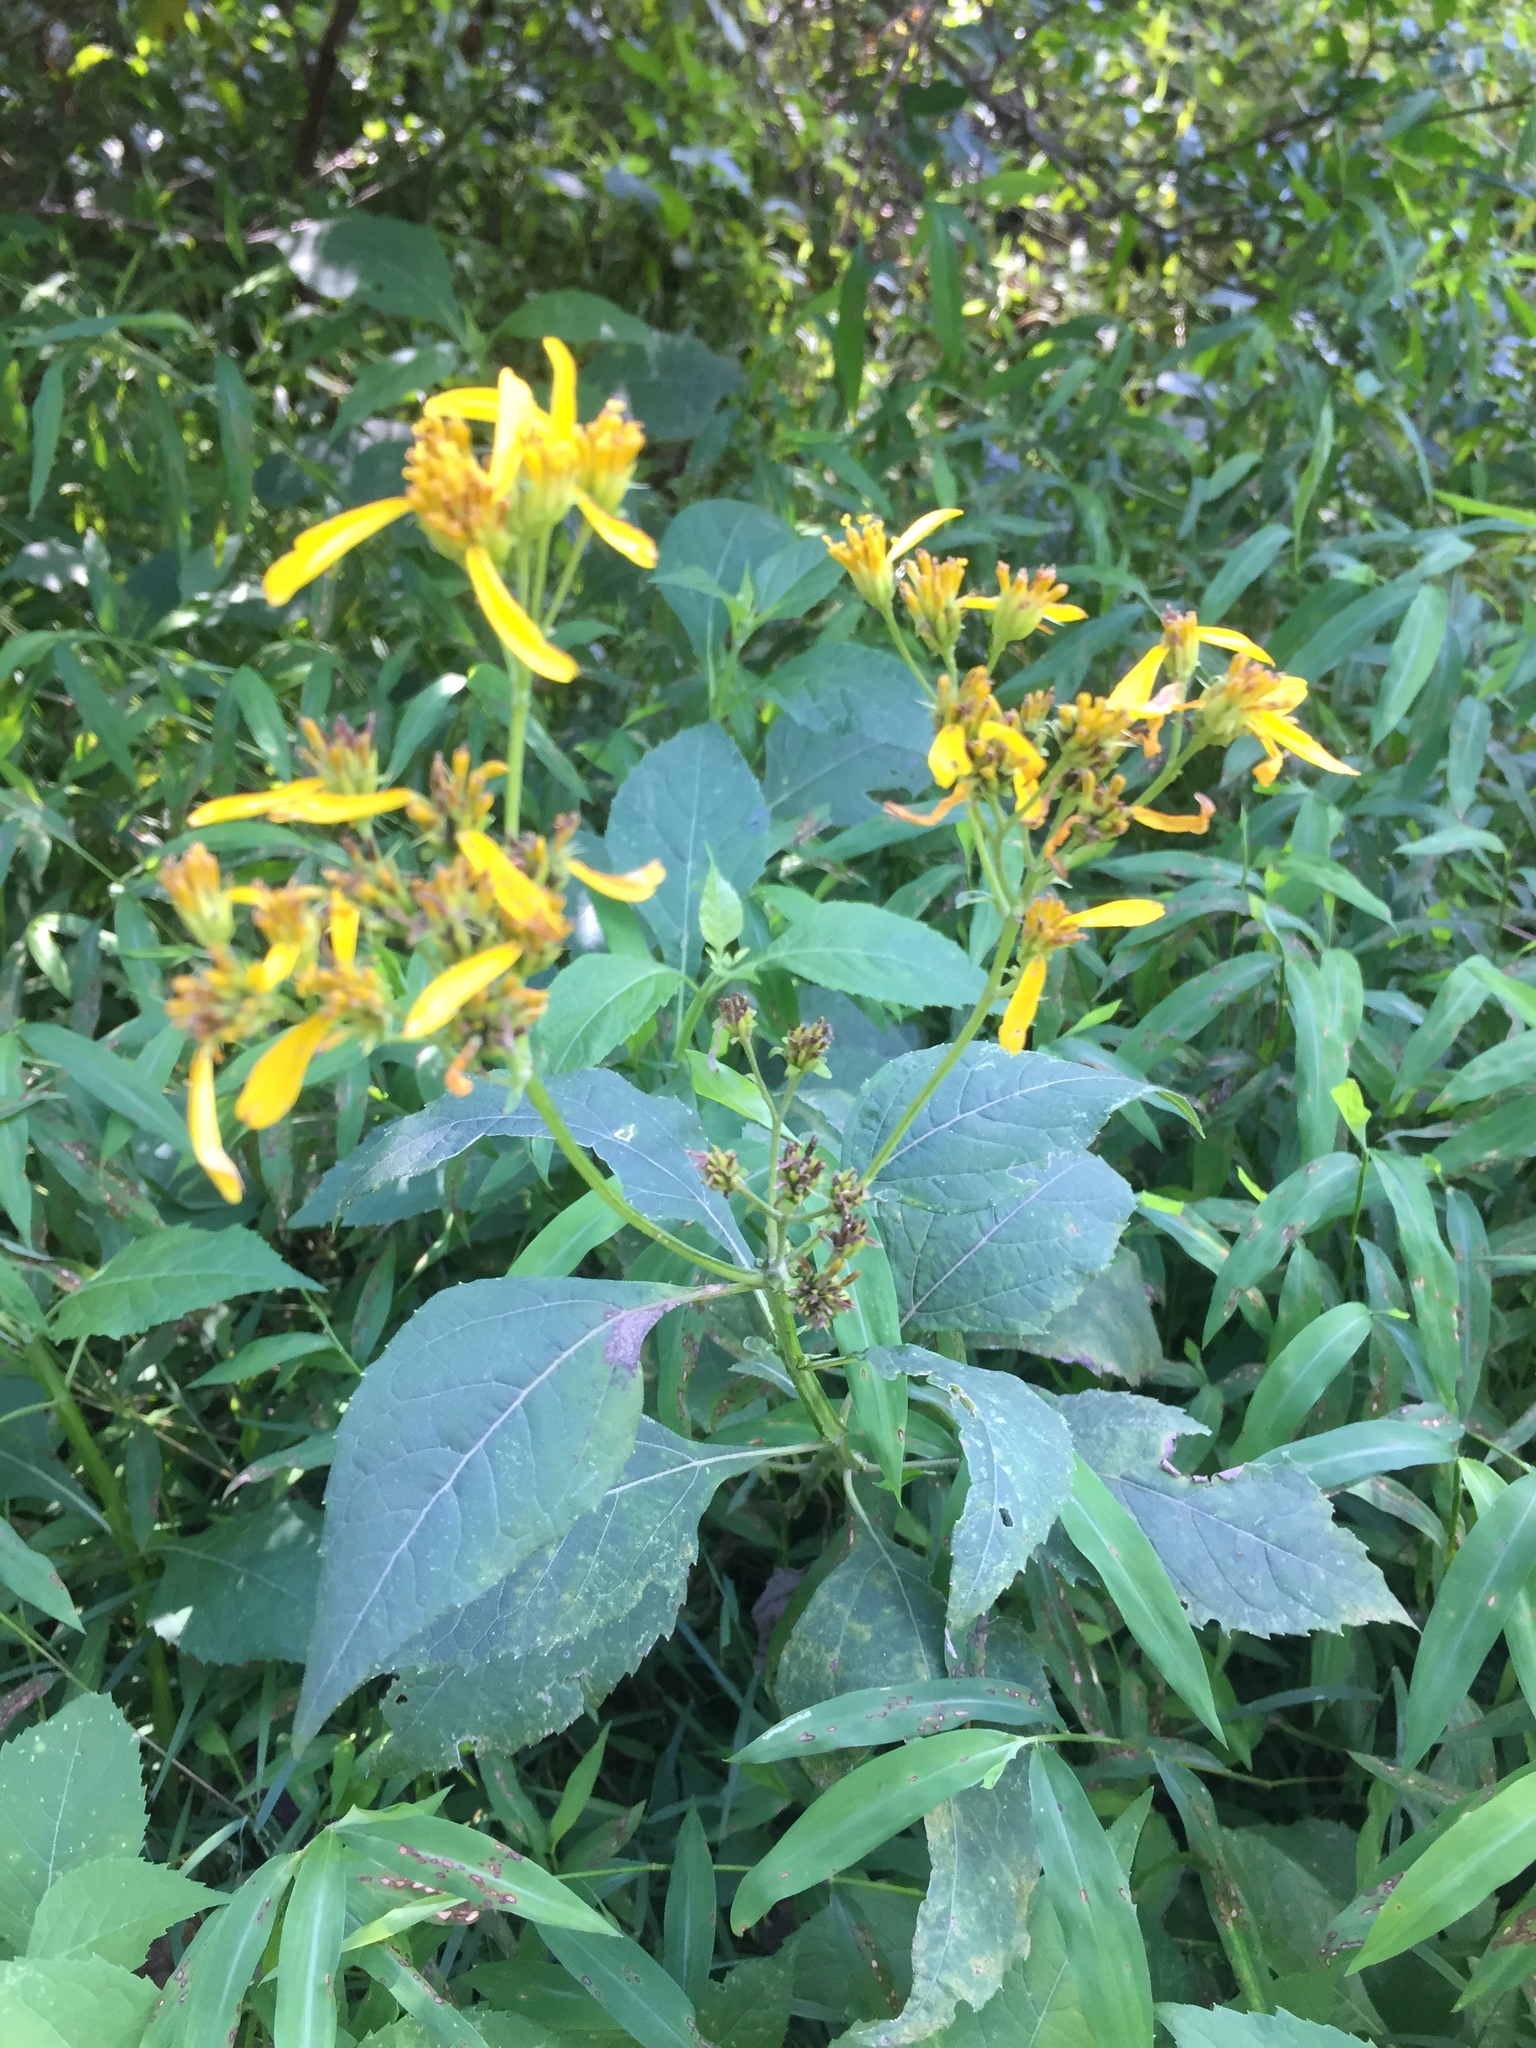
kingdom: Plantae
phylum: Tracheophyta
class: Magnoliopsida
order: Asterales
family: Asteraceae
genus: Verbesina
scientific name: Verbesina occidentalis
